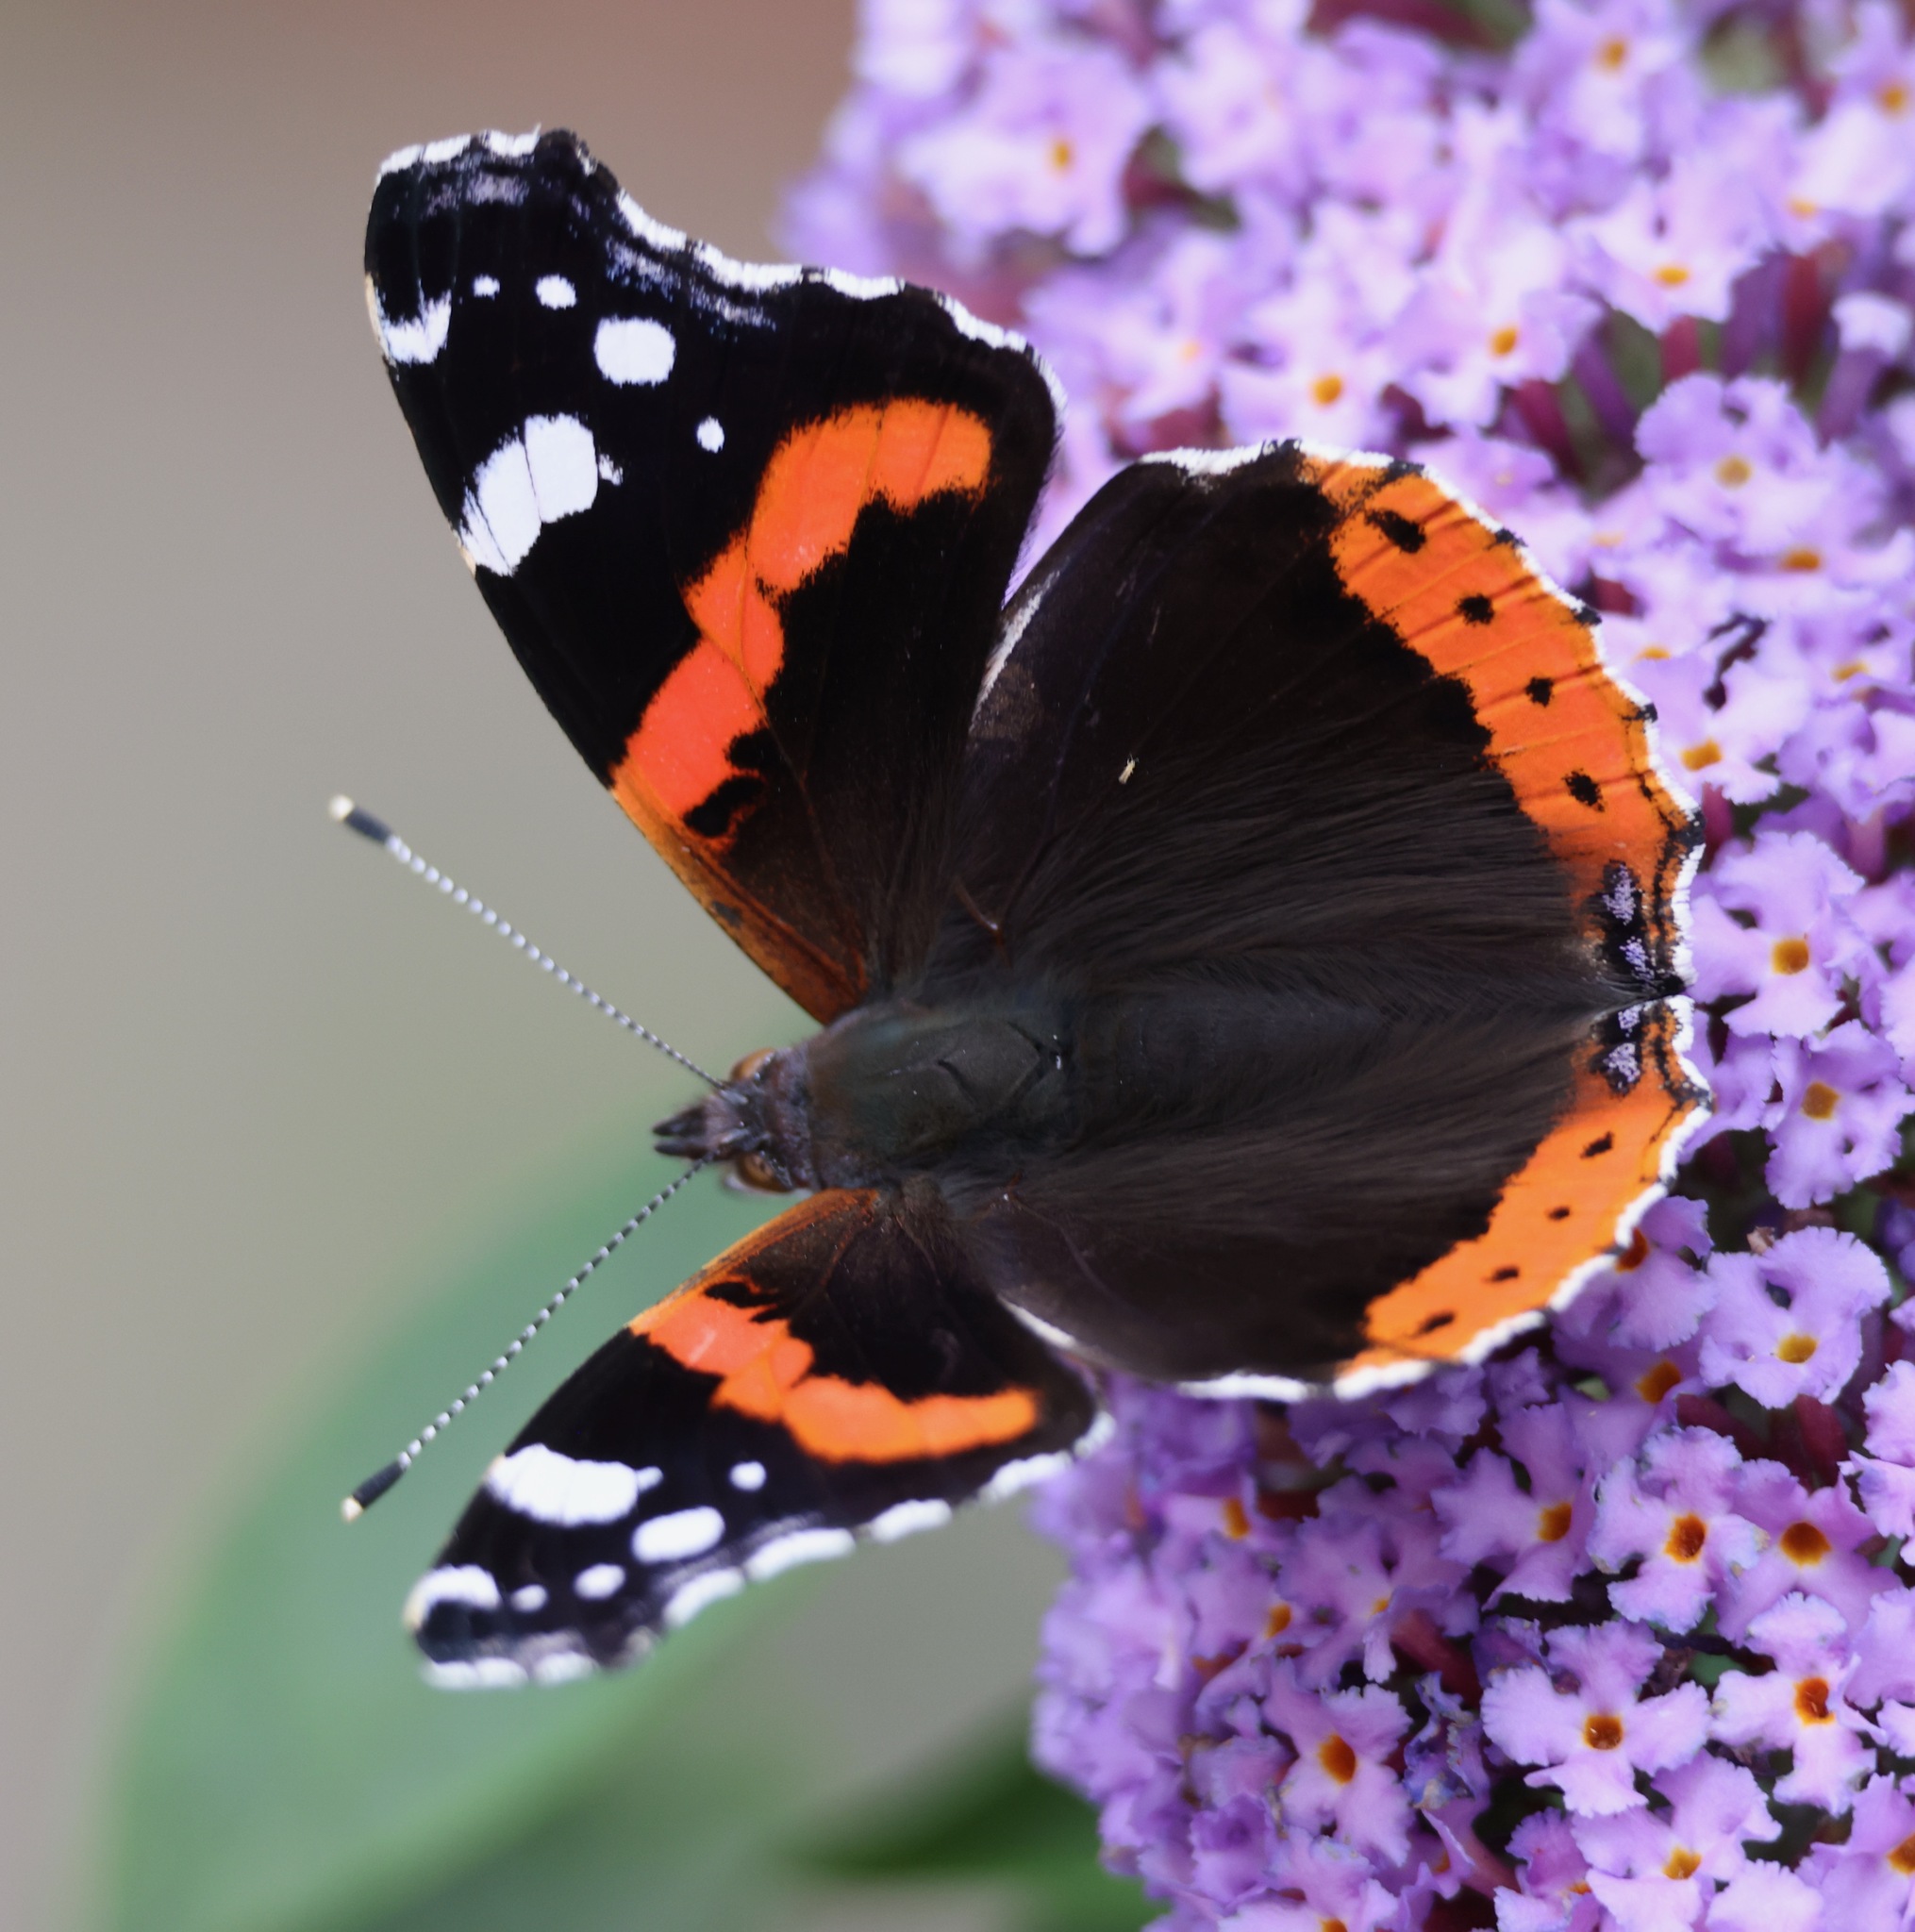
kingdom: Animalia
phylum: Arthropoda
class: Insecta
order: Lepidoptera
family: Nymphalidae
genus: Vanessa
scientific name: Vanessa atalanta
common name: Red admiral
